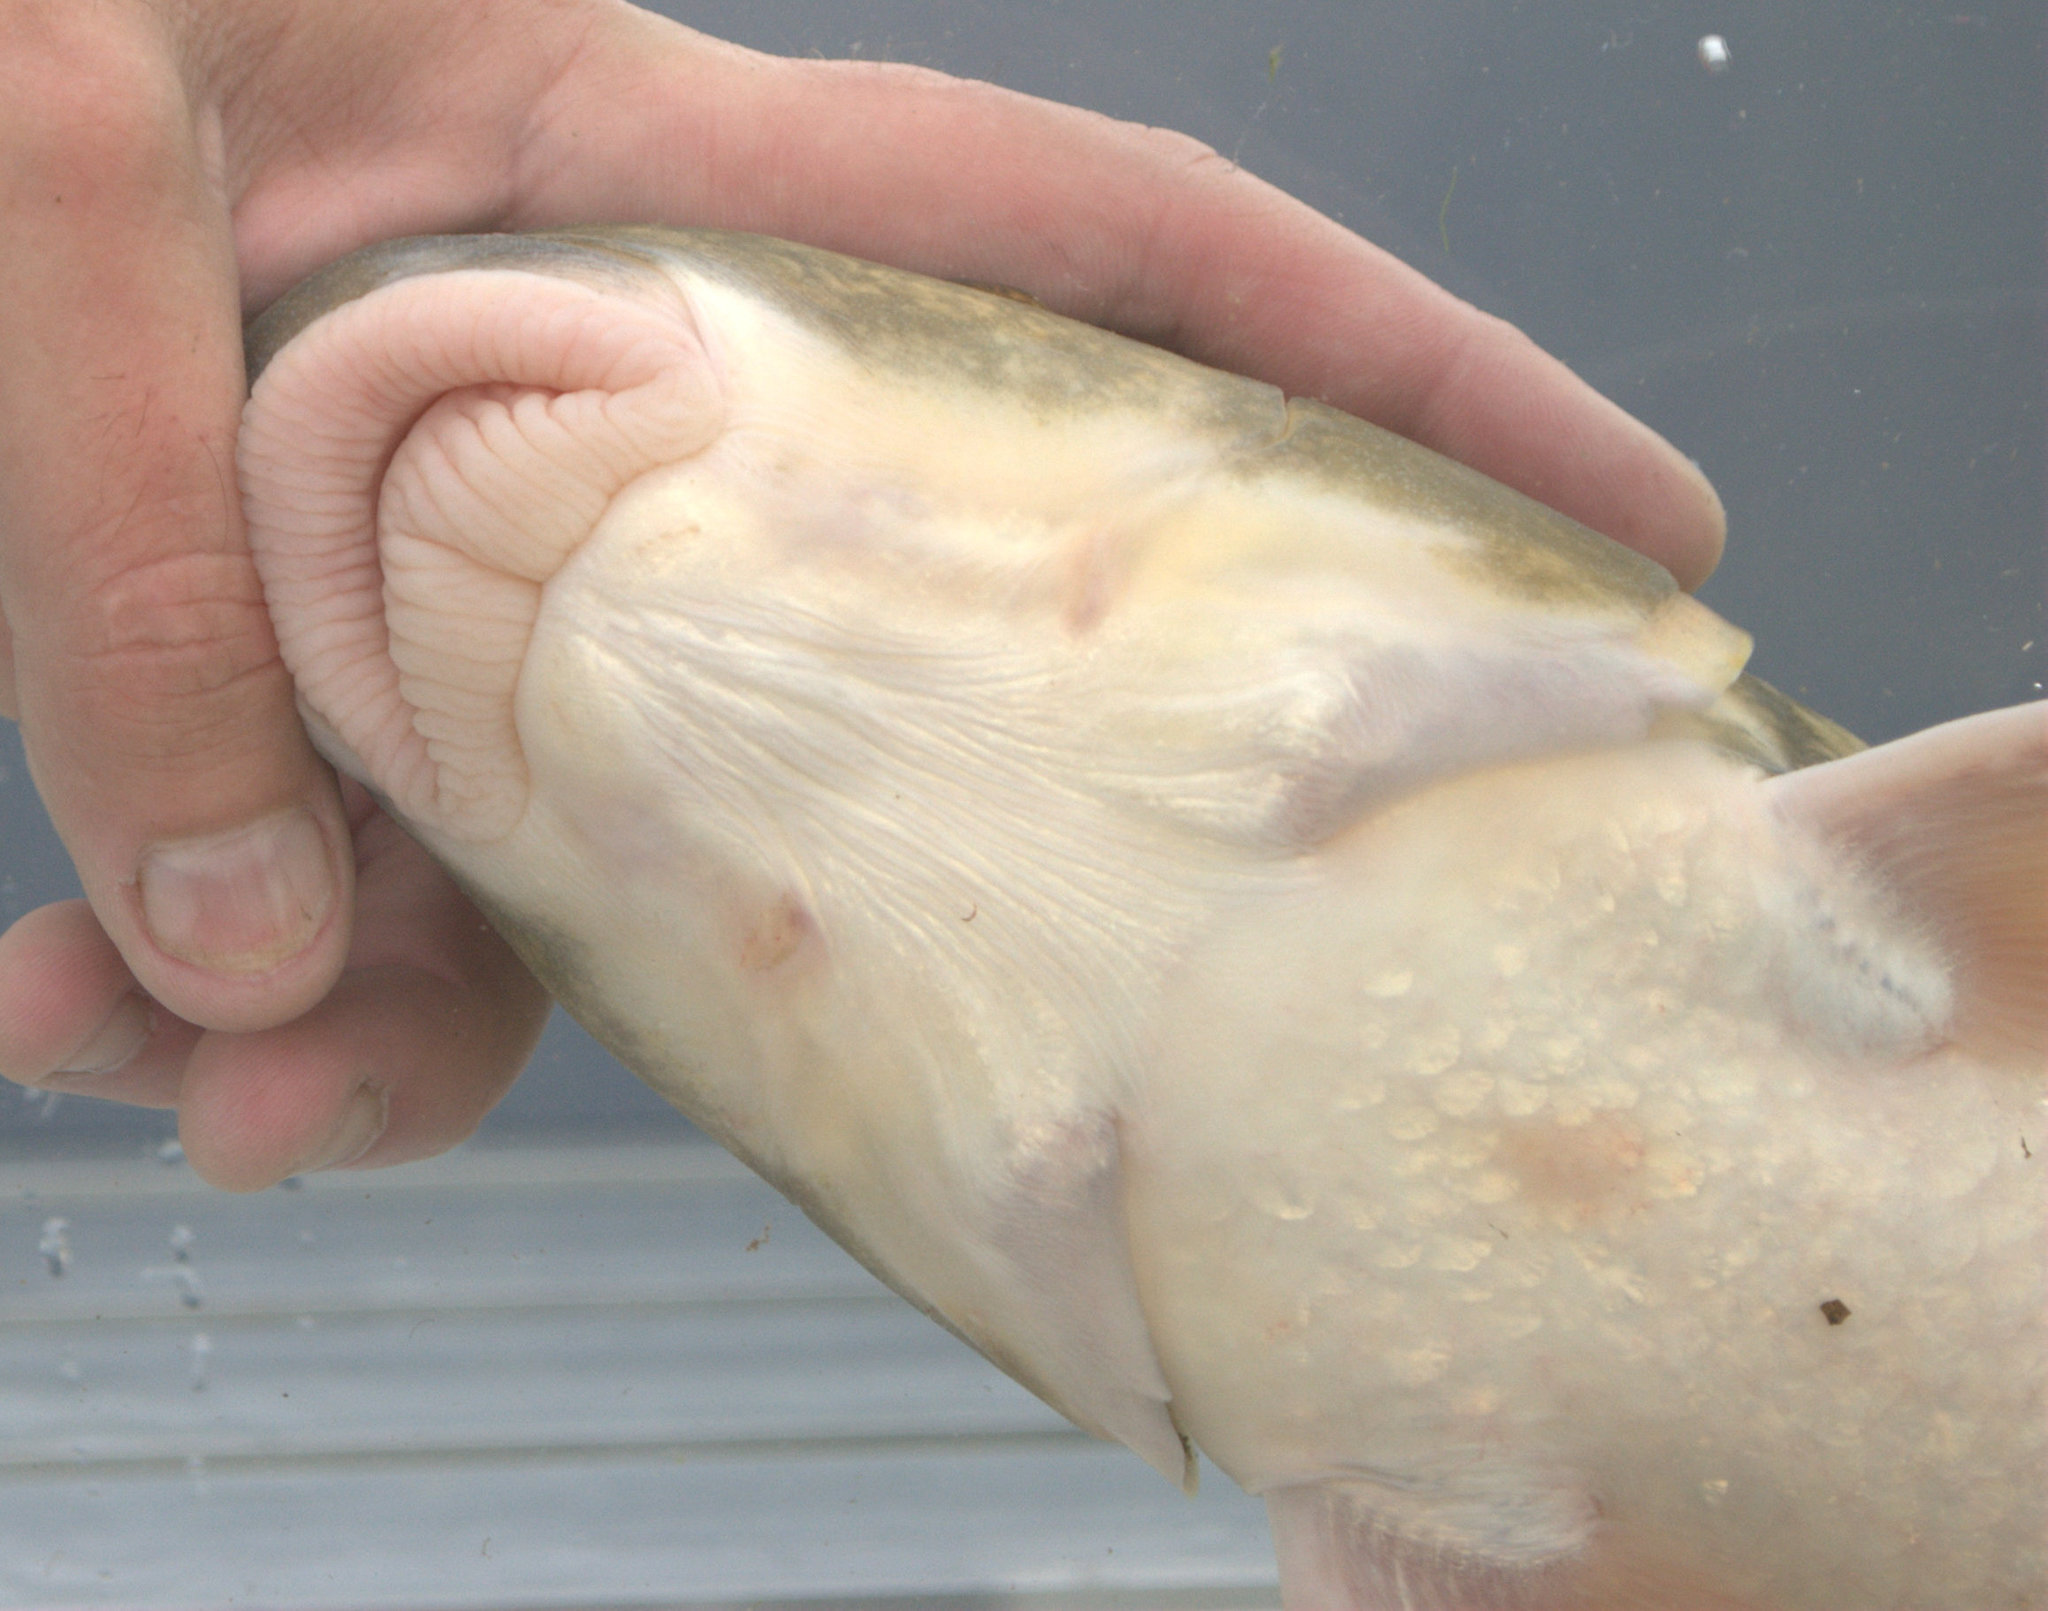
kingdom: Animalia
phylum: Chordata
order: Cypriniformes
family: Catostomidae
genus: Moxostoma
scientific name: Moxostoma valenciennesi
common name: Greater redhorse
